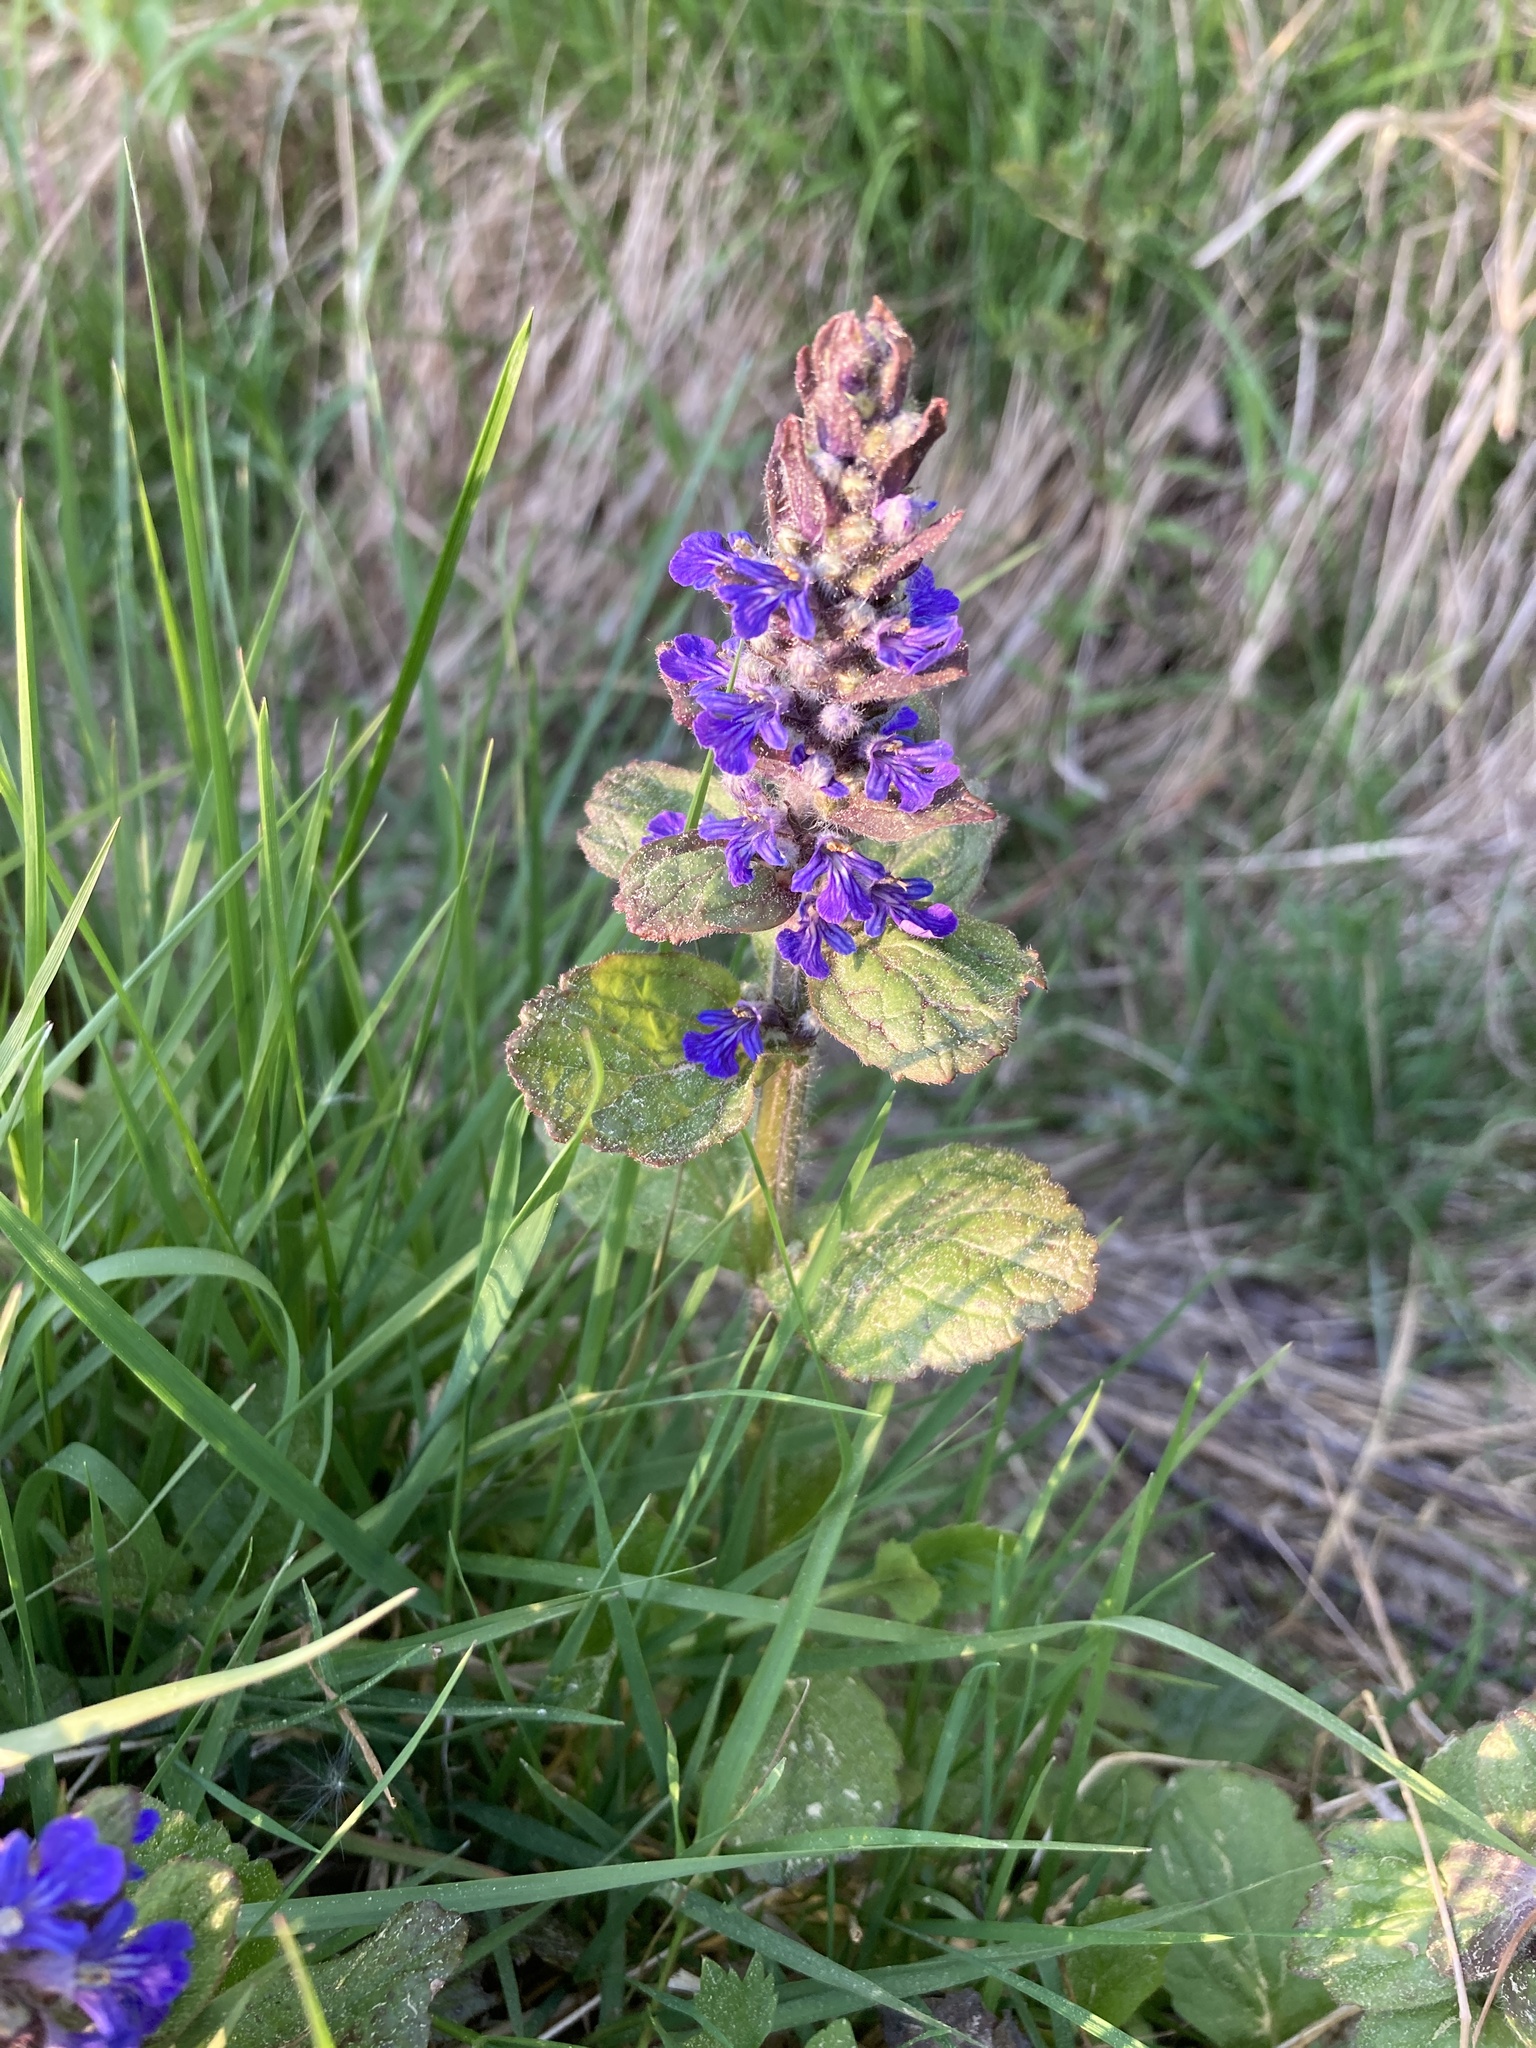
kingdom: Plantae
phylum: Tracheophyta
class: Magnoliopsida
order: Lamiales
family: Lamiaceae
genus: Ajuga
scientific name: Ajuga reptans
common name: Bugle
